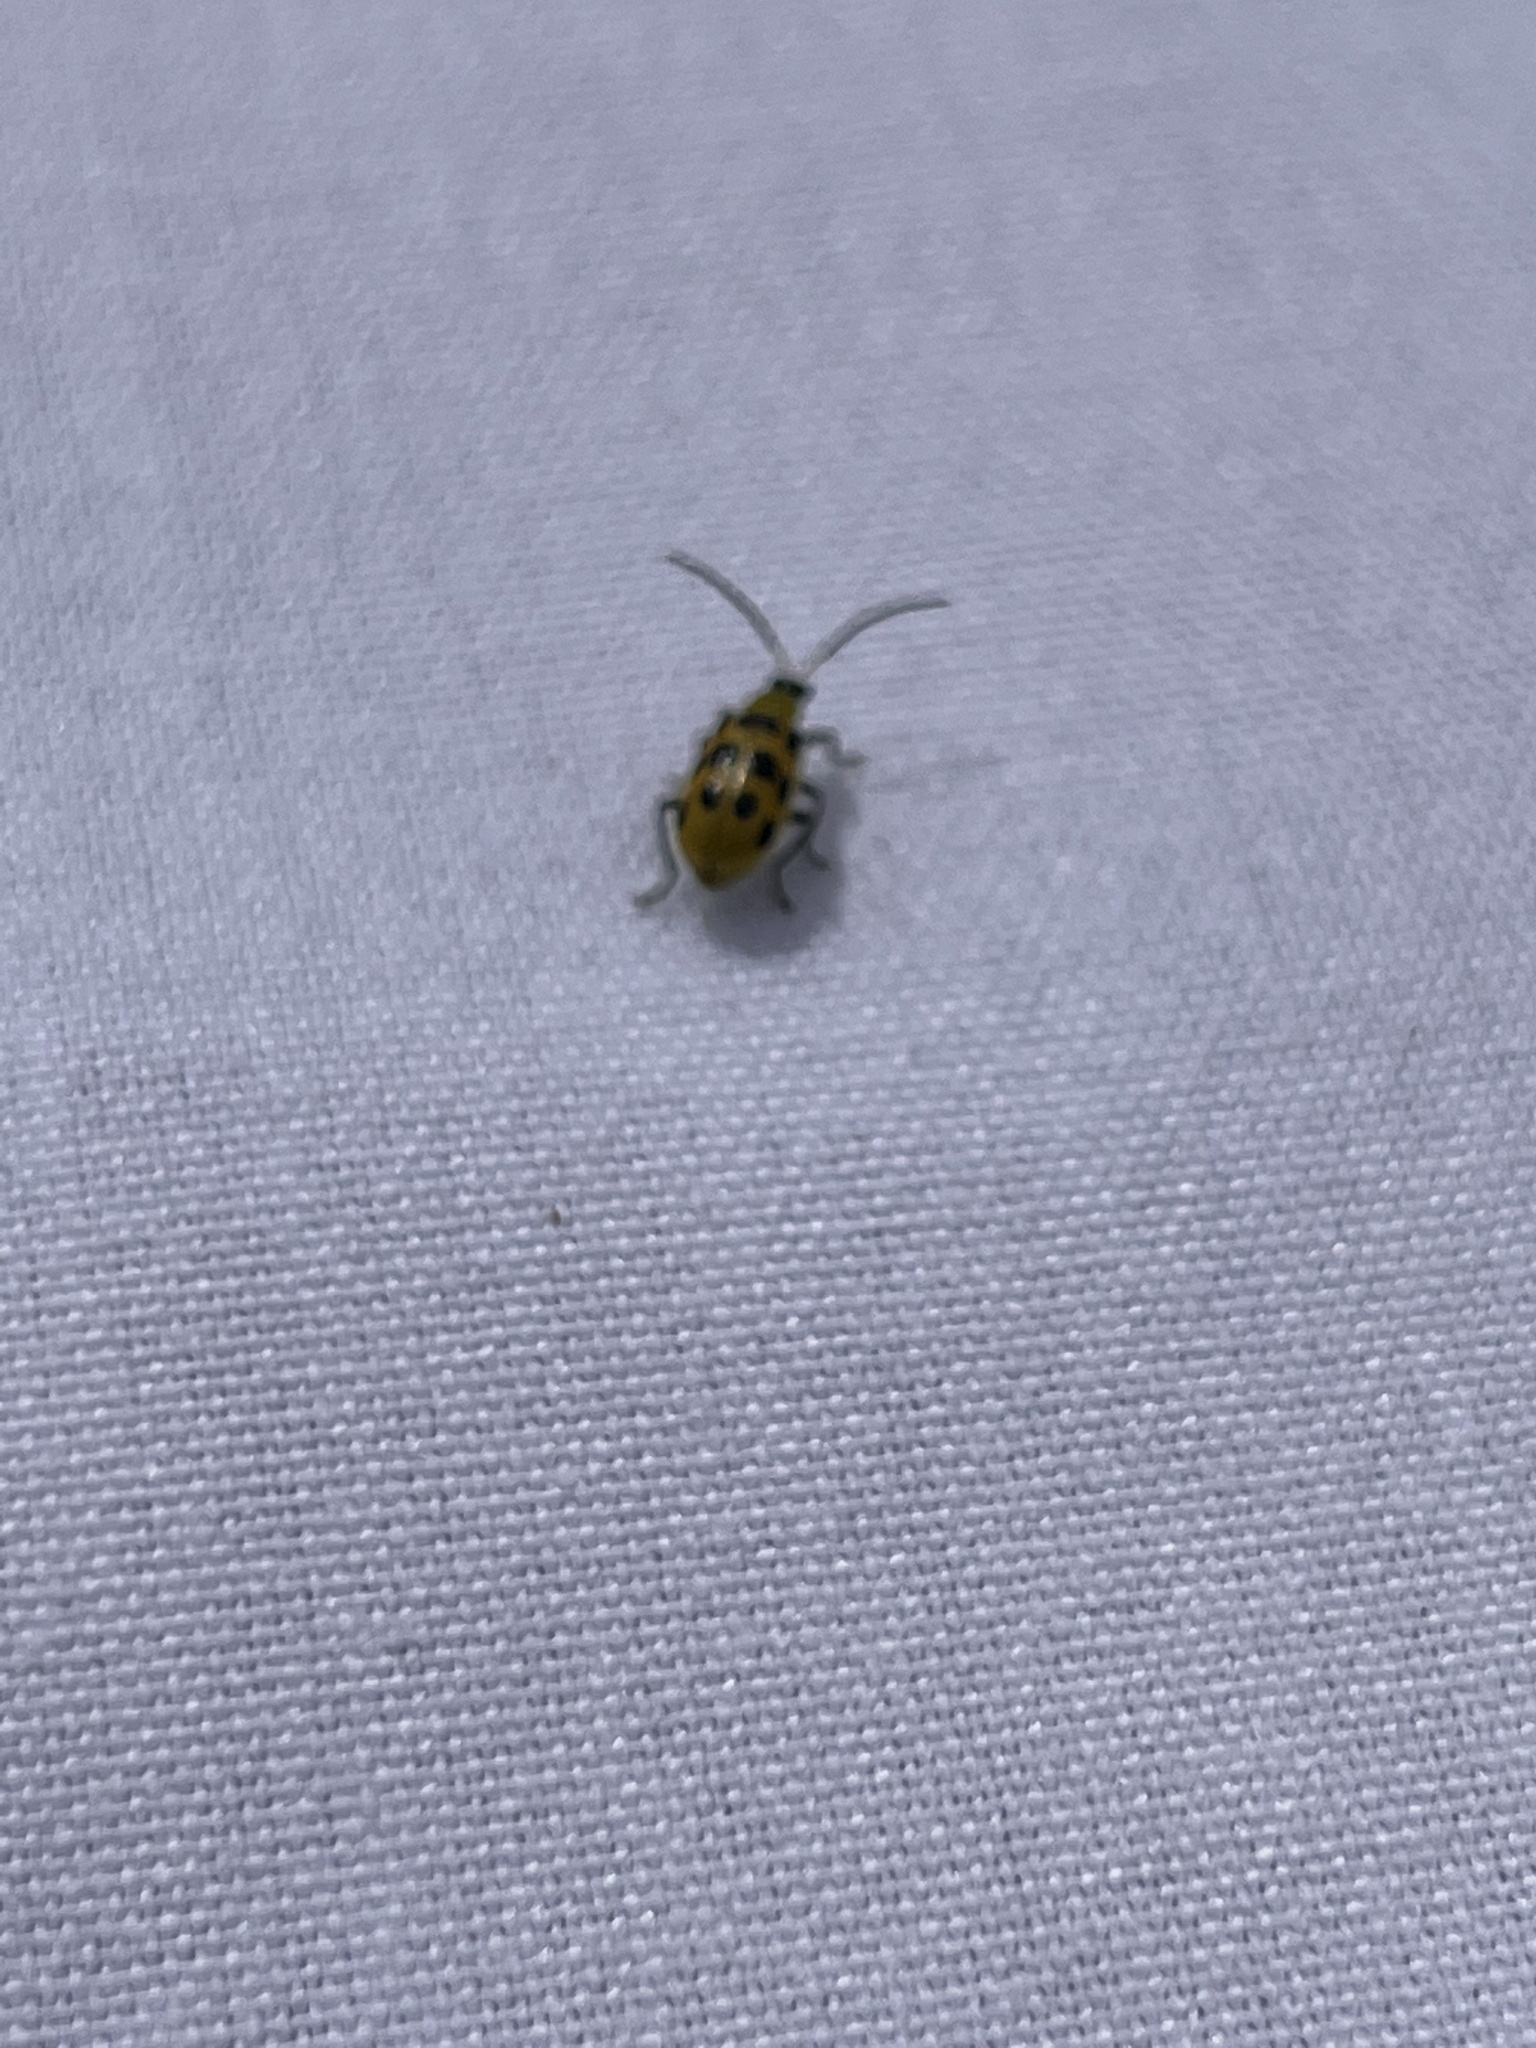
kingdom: Animalia
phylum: Arthropoda
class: Insecta
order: Coleoptera
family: Chrysomelidae
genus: Diabrotica
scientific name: Diabrotica undecimpunctata
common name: Spotted cucumber beetle
